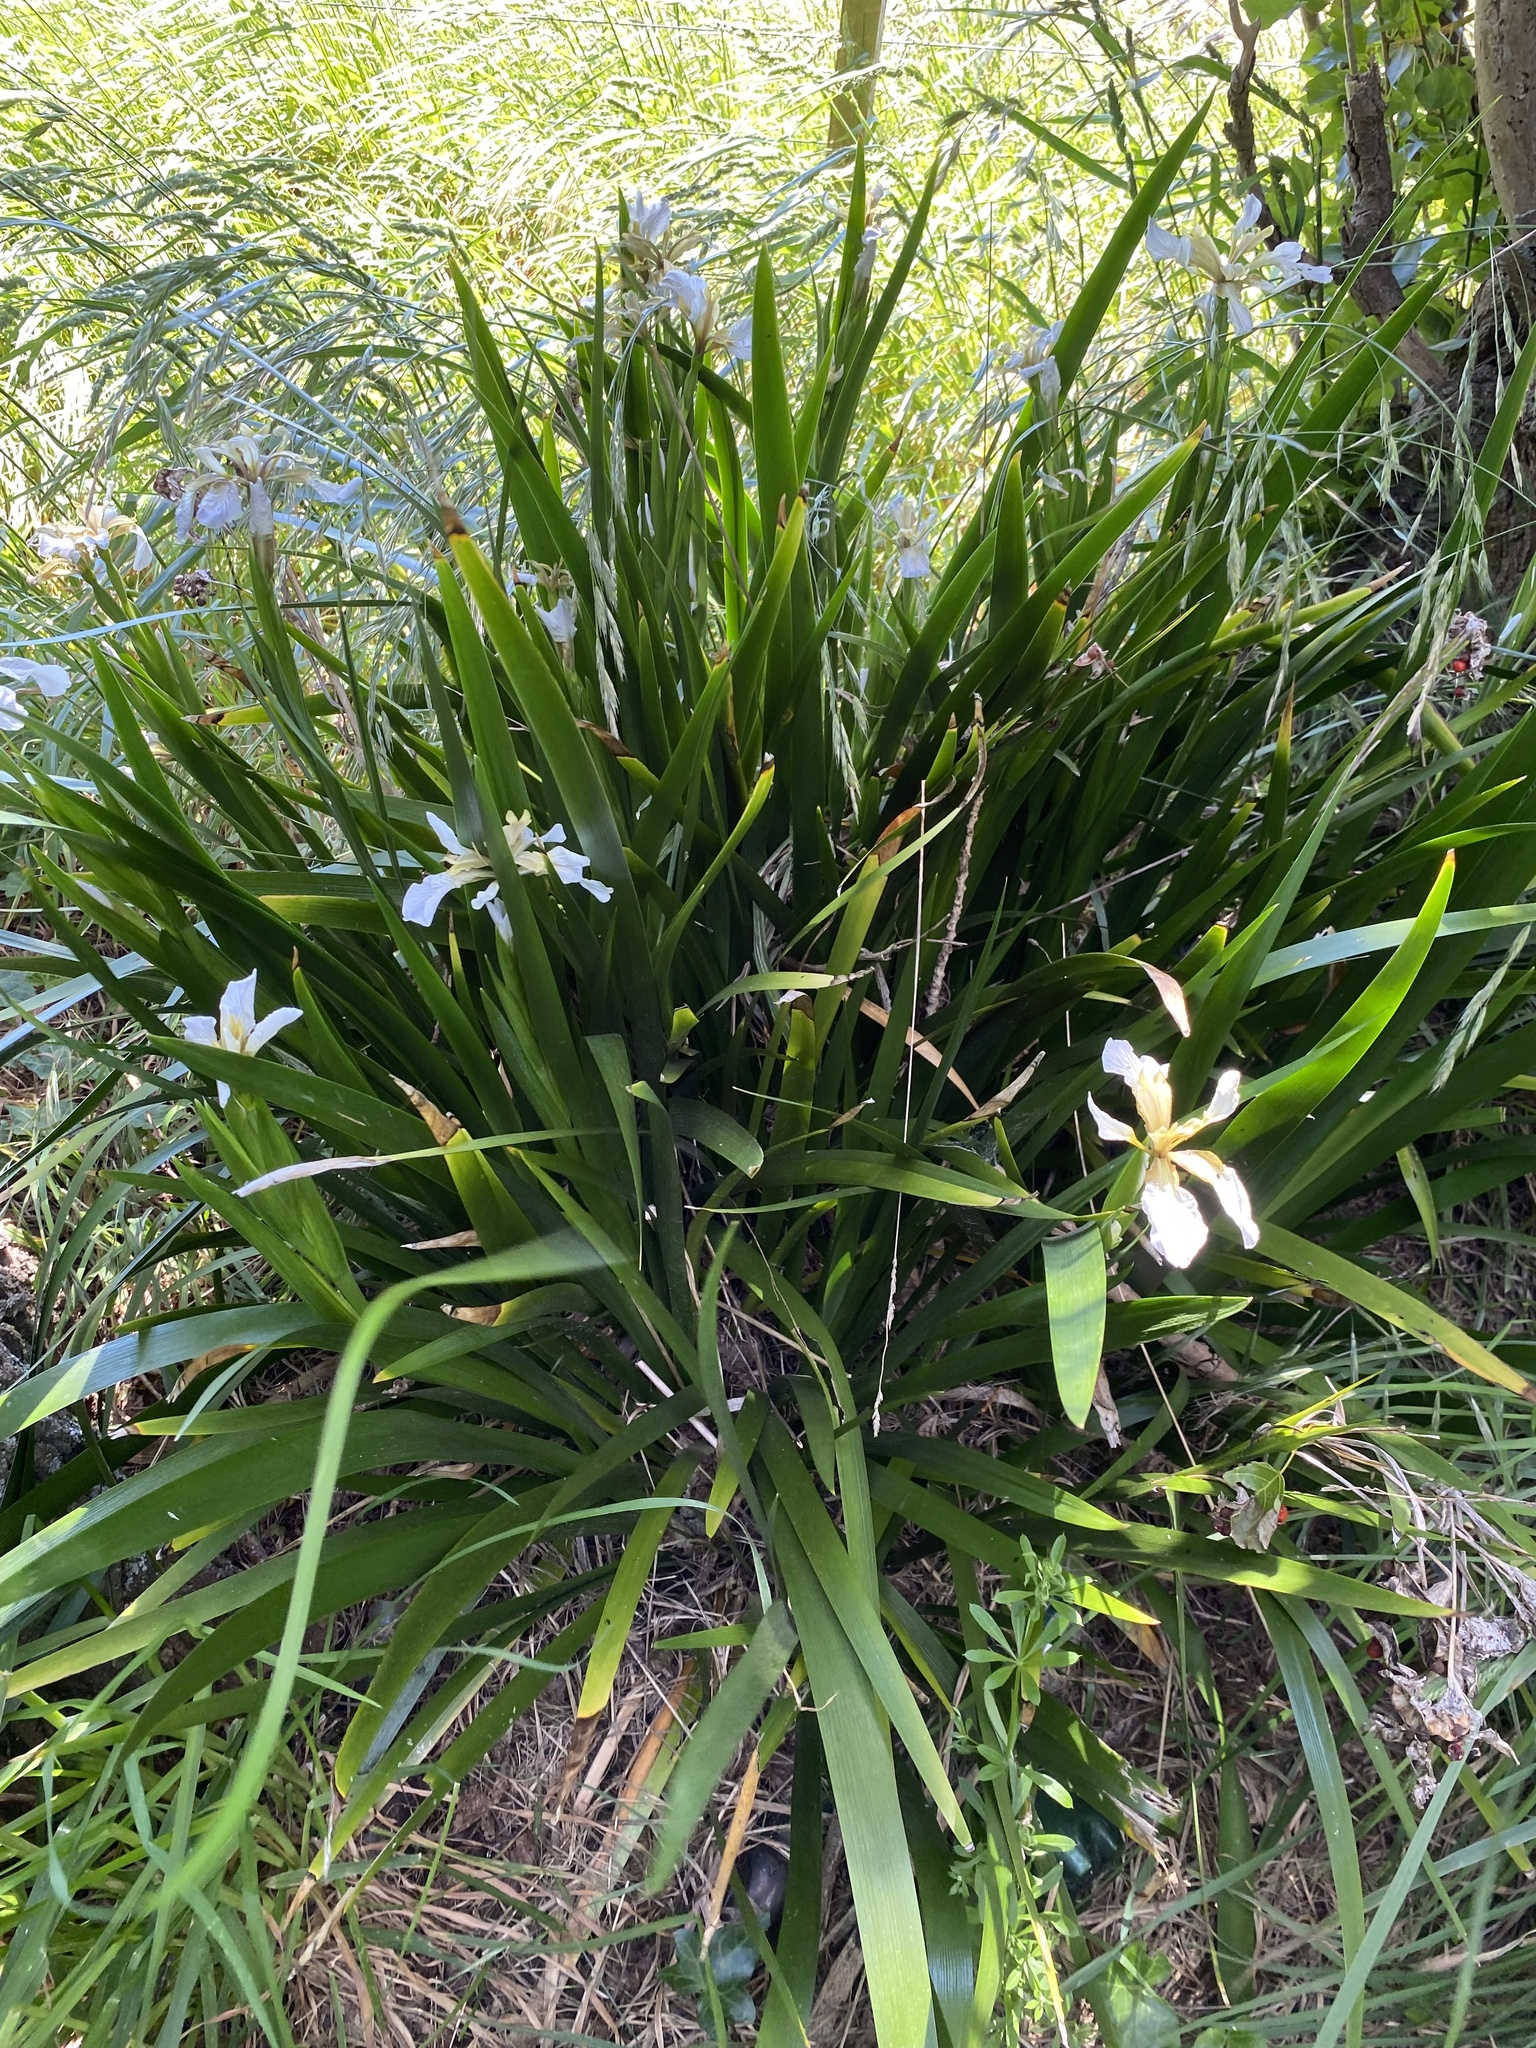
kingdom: Plantae
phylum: Tracheophyta
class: Liliopsida
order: Asparagales
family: Iridaceae
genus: Iris
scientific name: Iris foetidissima
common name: Stinking iris
